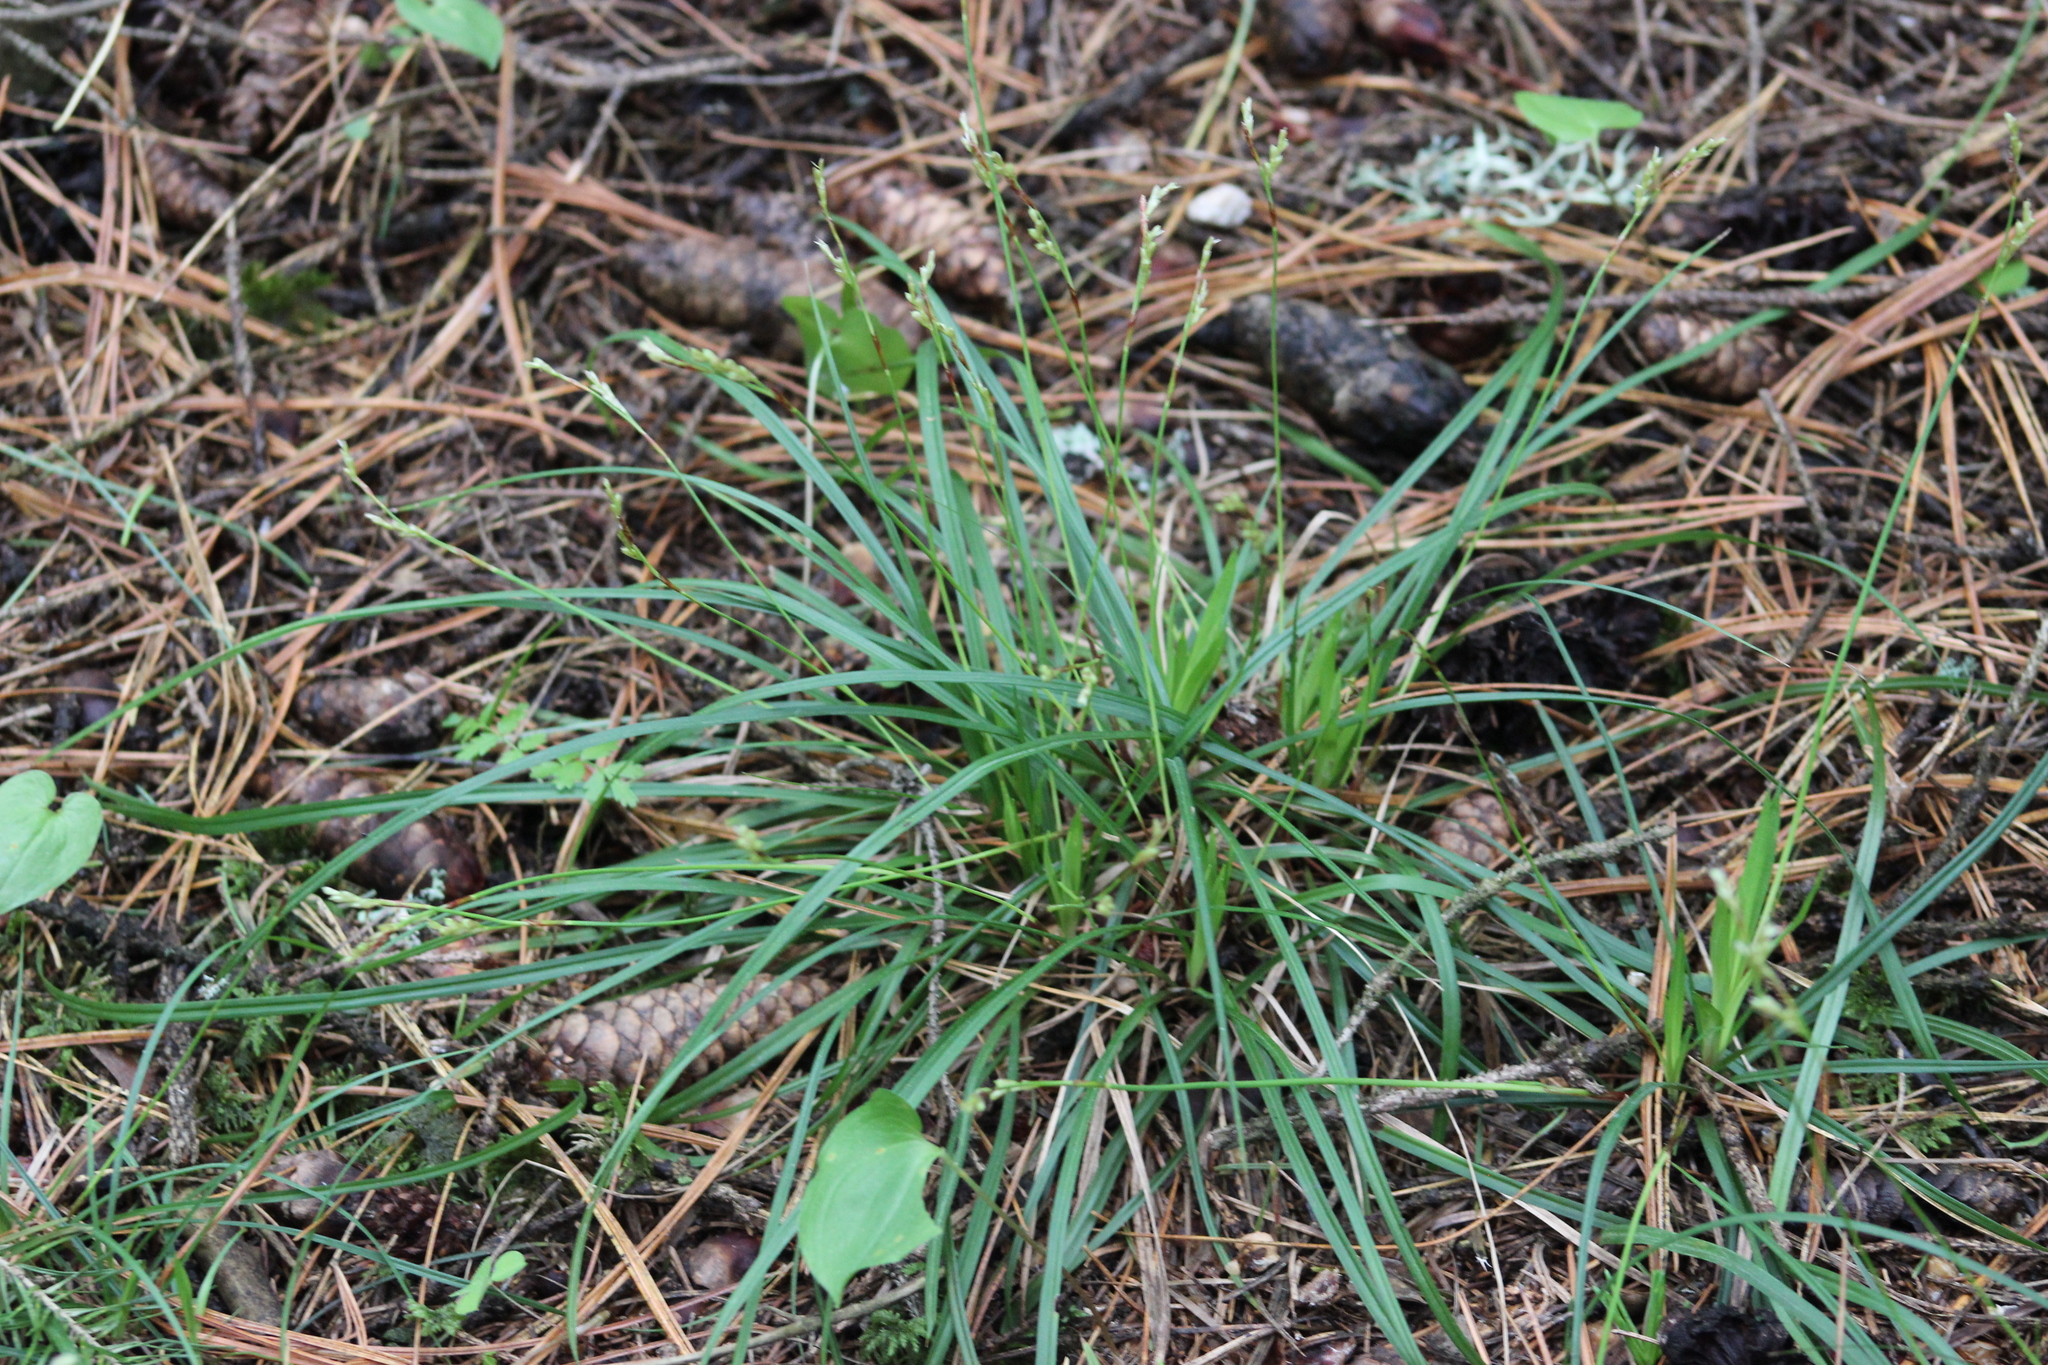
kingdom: Plantae
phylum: Tracheophyta
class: Liliopsida
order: Poales
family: Cyperaceae
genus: Carex
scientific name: Carex pediformis
